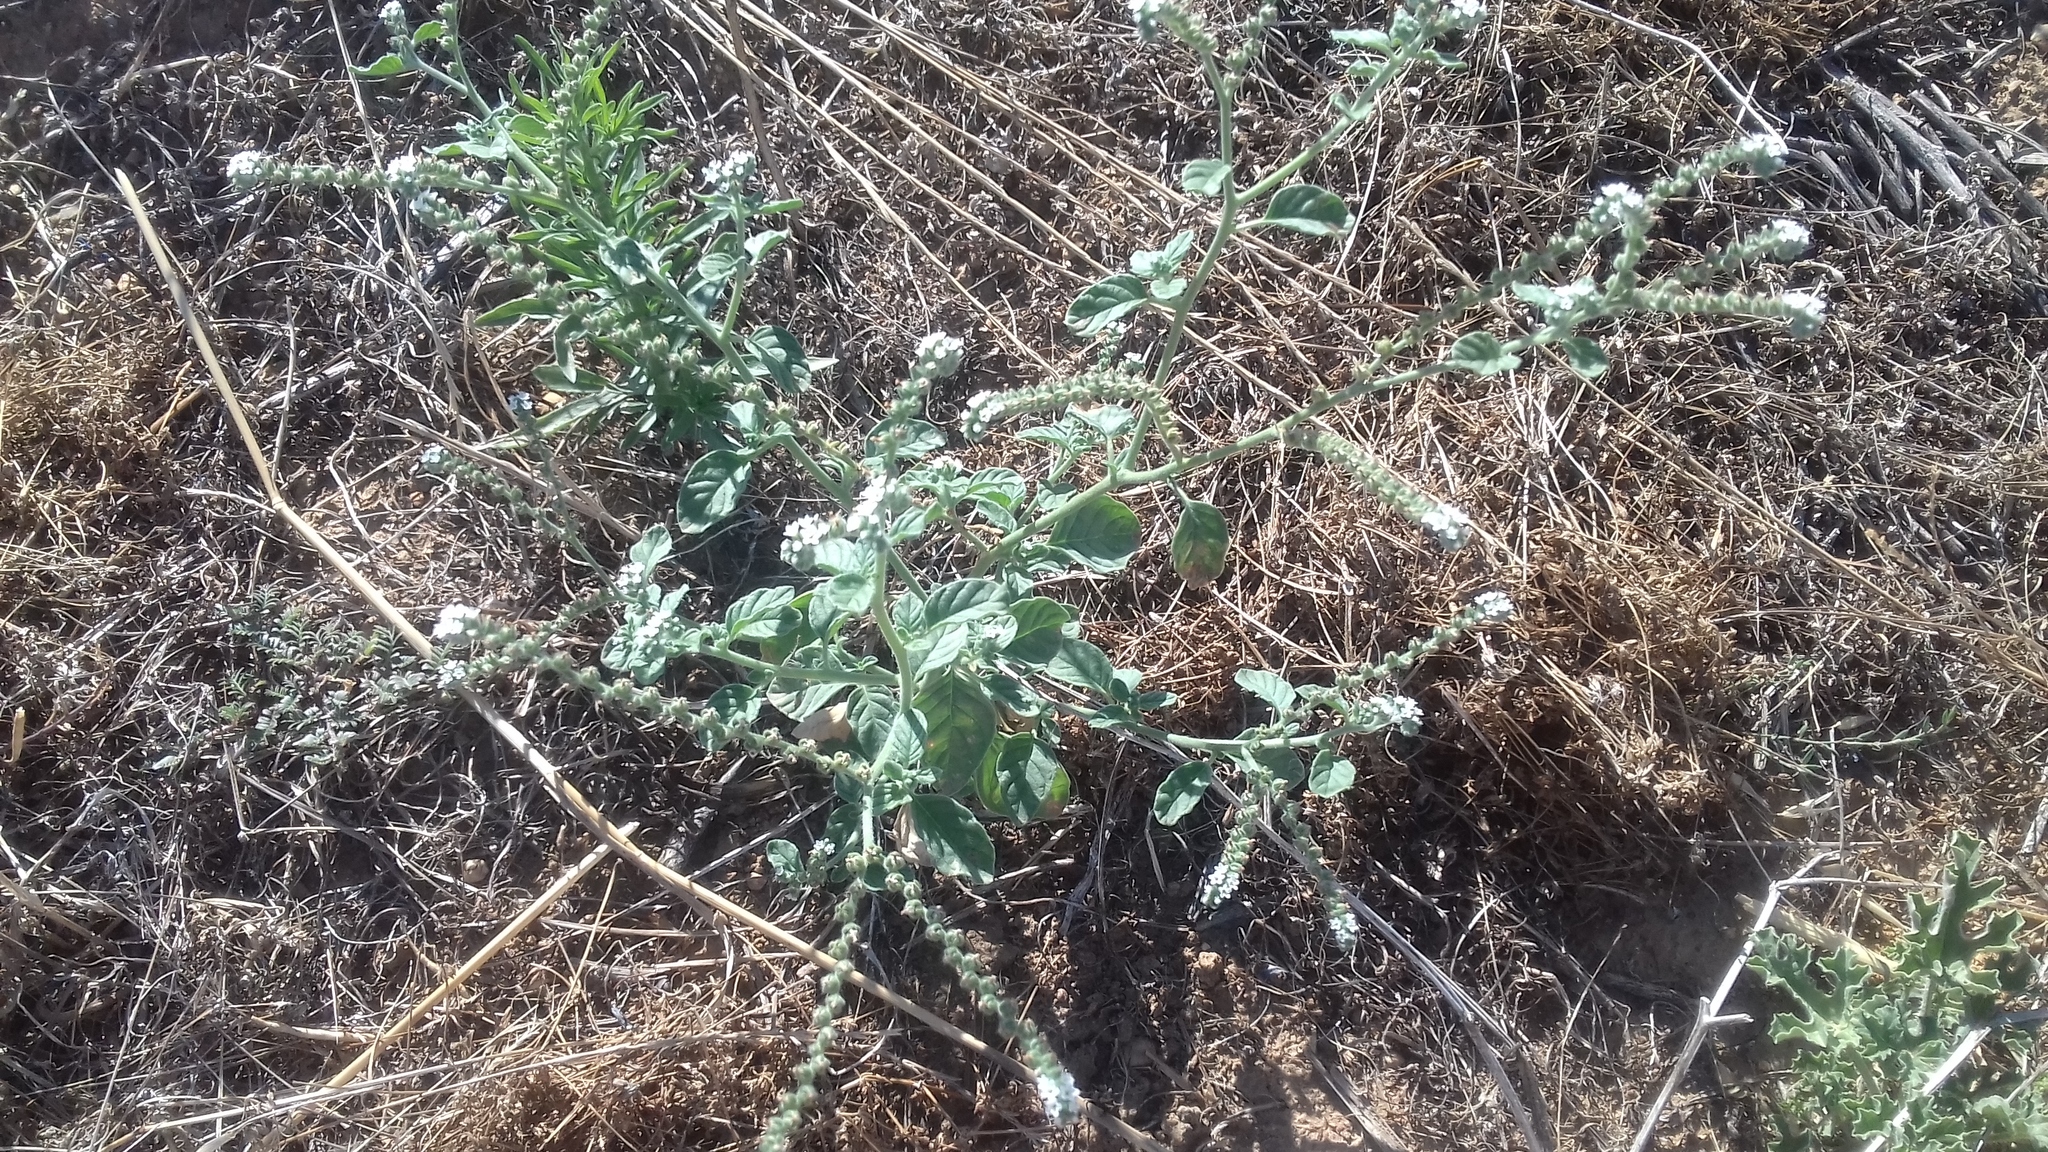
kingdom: Plantae
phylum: Tracheophyta
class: Magnoliopsida
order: Boraginales
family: Heliotropiaceae
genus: Heliotropium
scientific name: Heliotropium supinum
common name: Dwarf heliotrope
